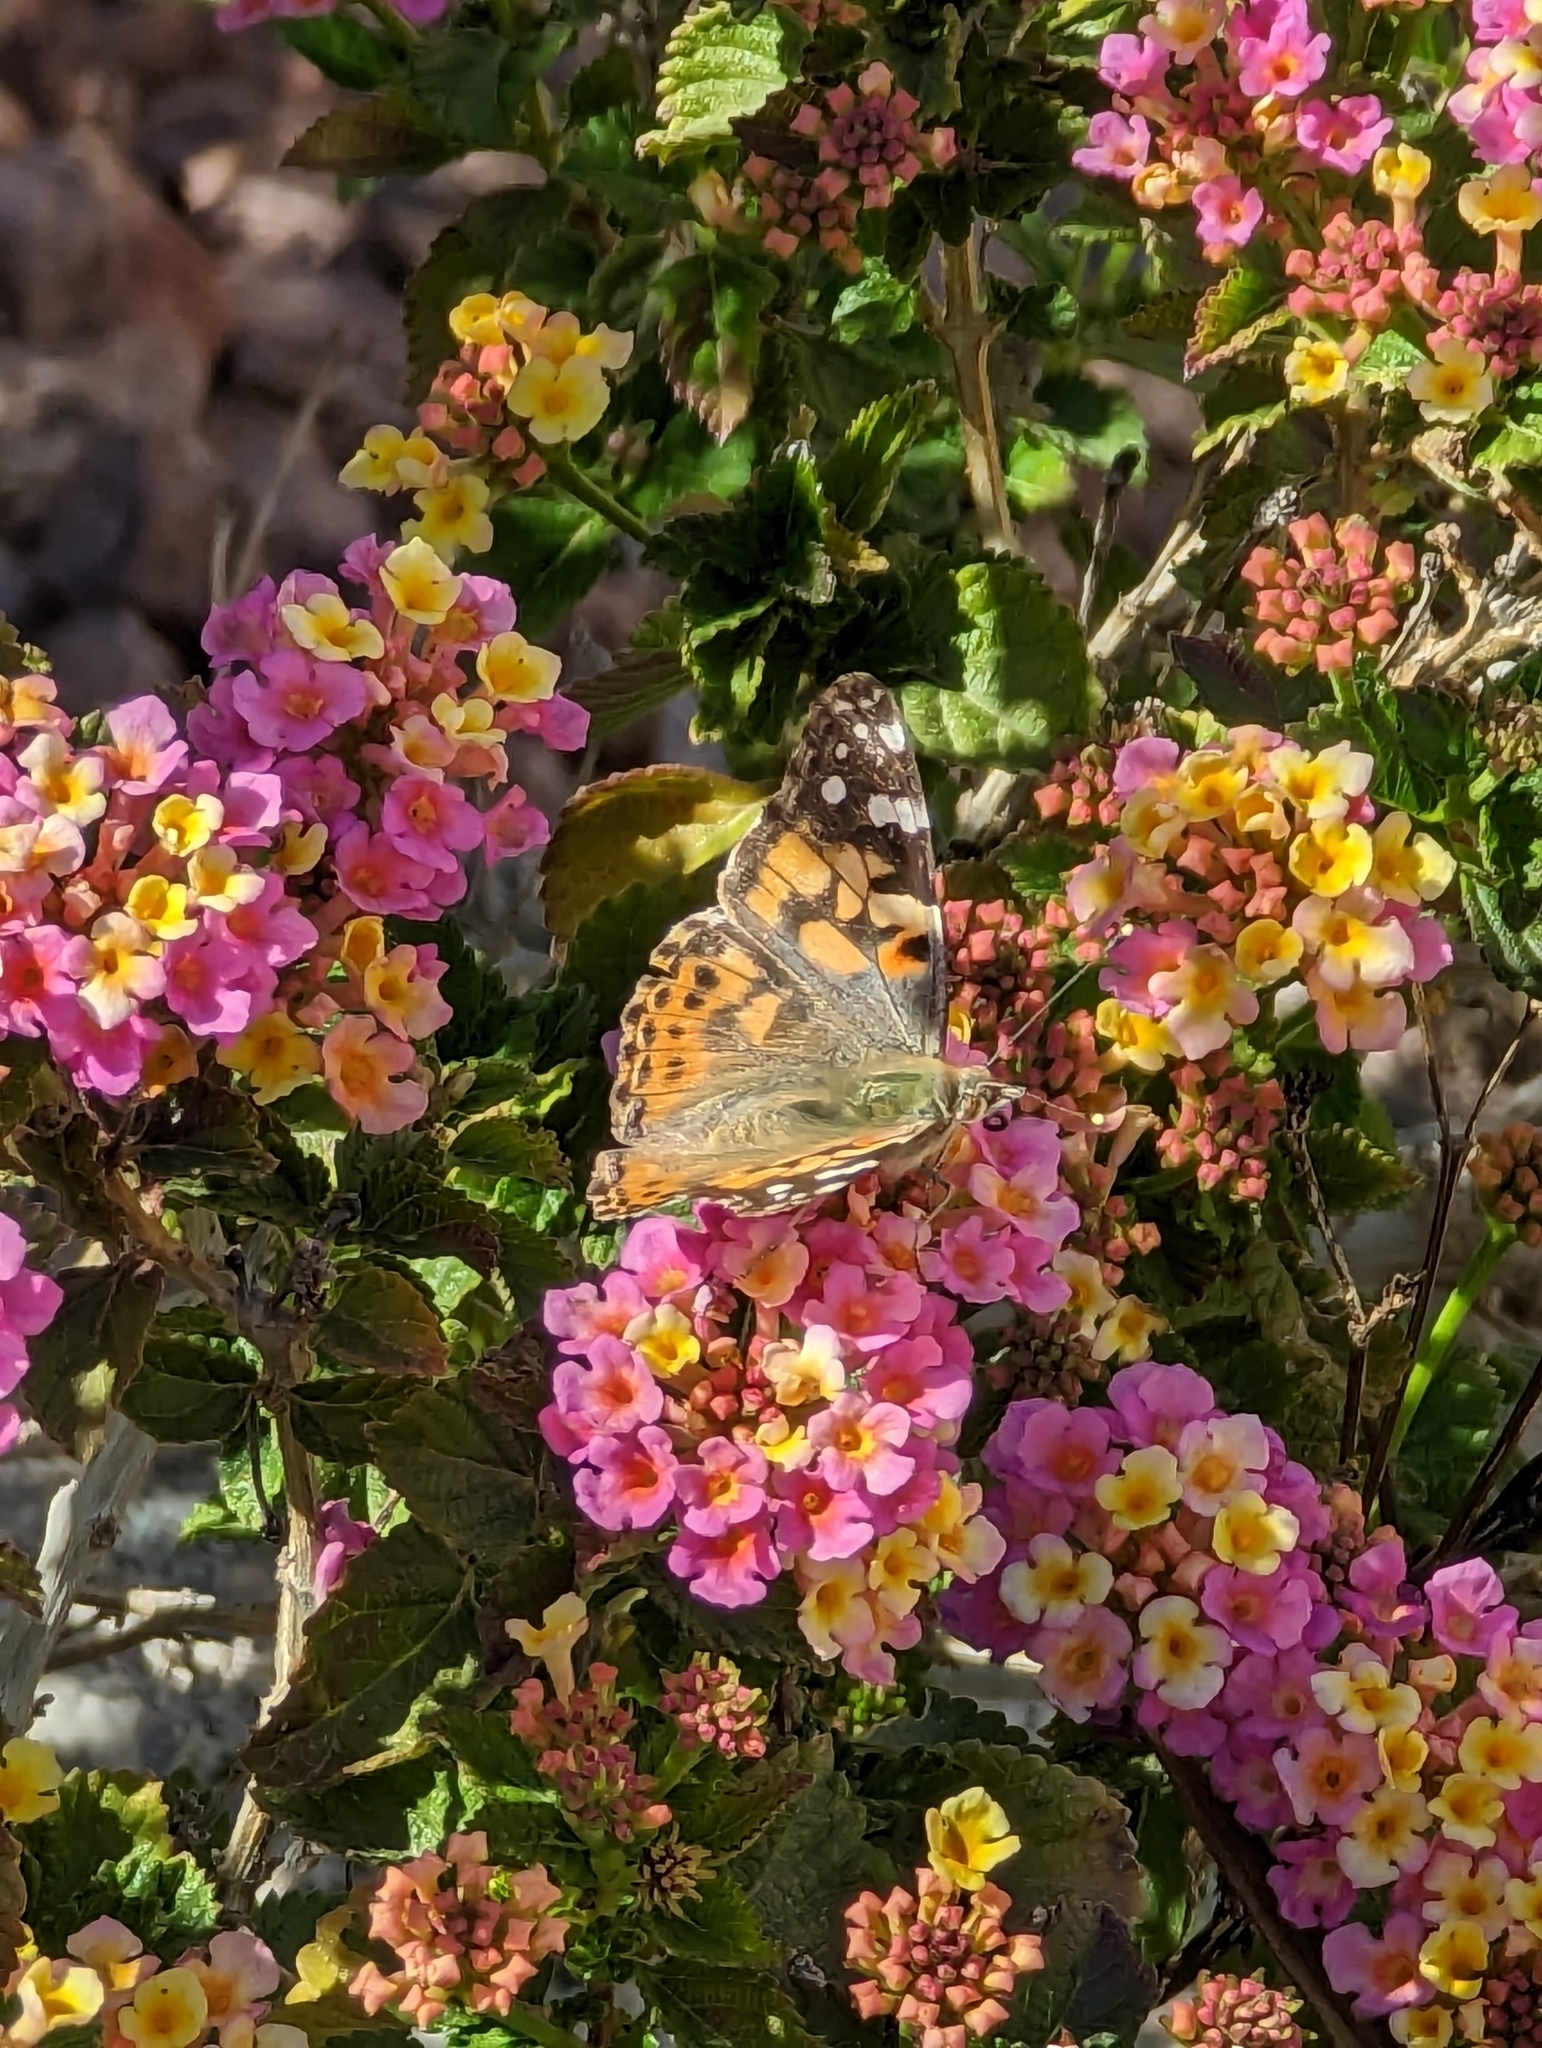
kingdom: Animalia
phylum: Arthropoda
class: Insecta
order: Lepidoptera
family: Nymphalidae
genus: Vanessa
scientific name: Vanessa cardui
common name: Painted lady
